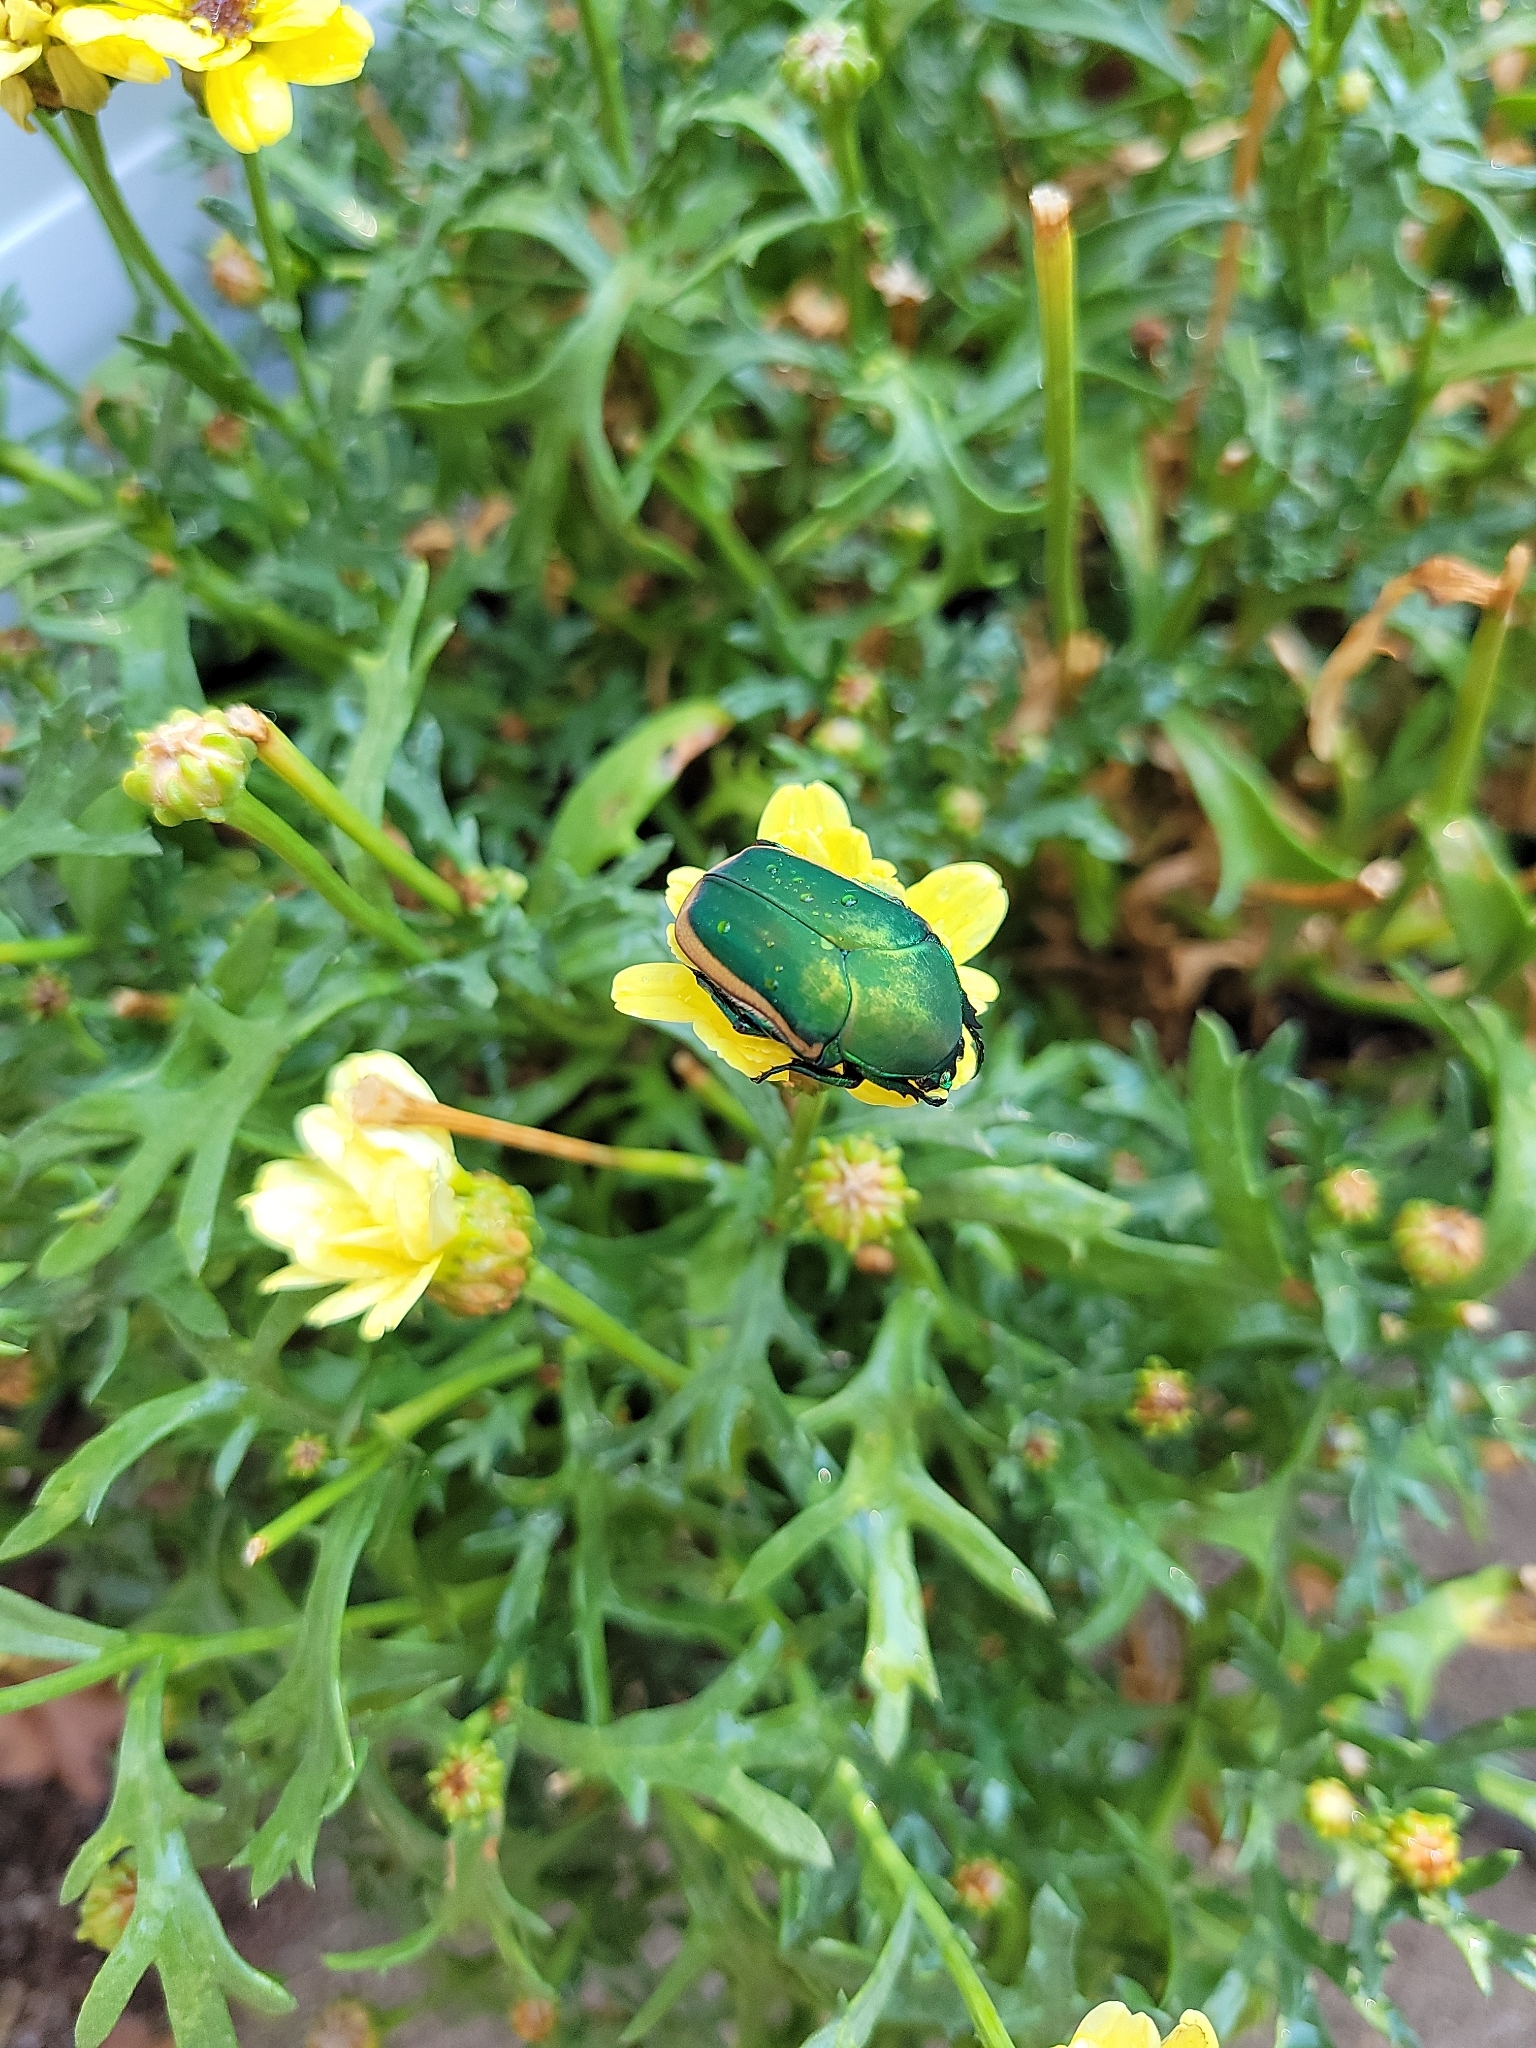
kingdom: Animalia
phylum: Arthropoda
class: Insecta
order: Coleoptera
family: Scarabaeidae
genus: Cotinis
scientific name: Cotinis mutabilis
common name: Figeater beetle
